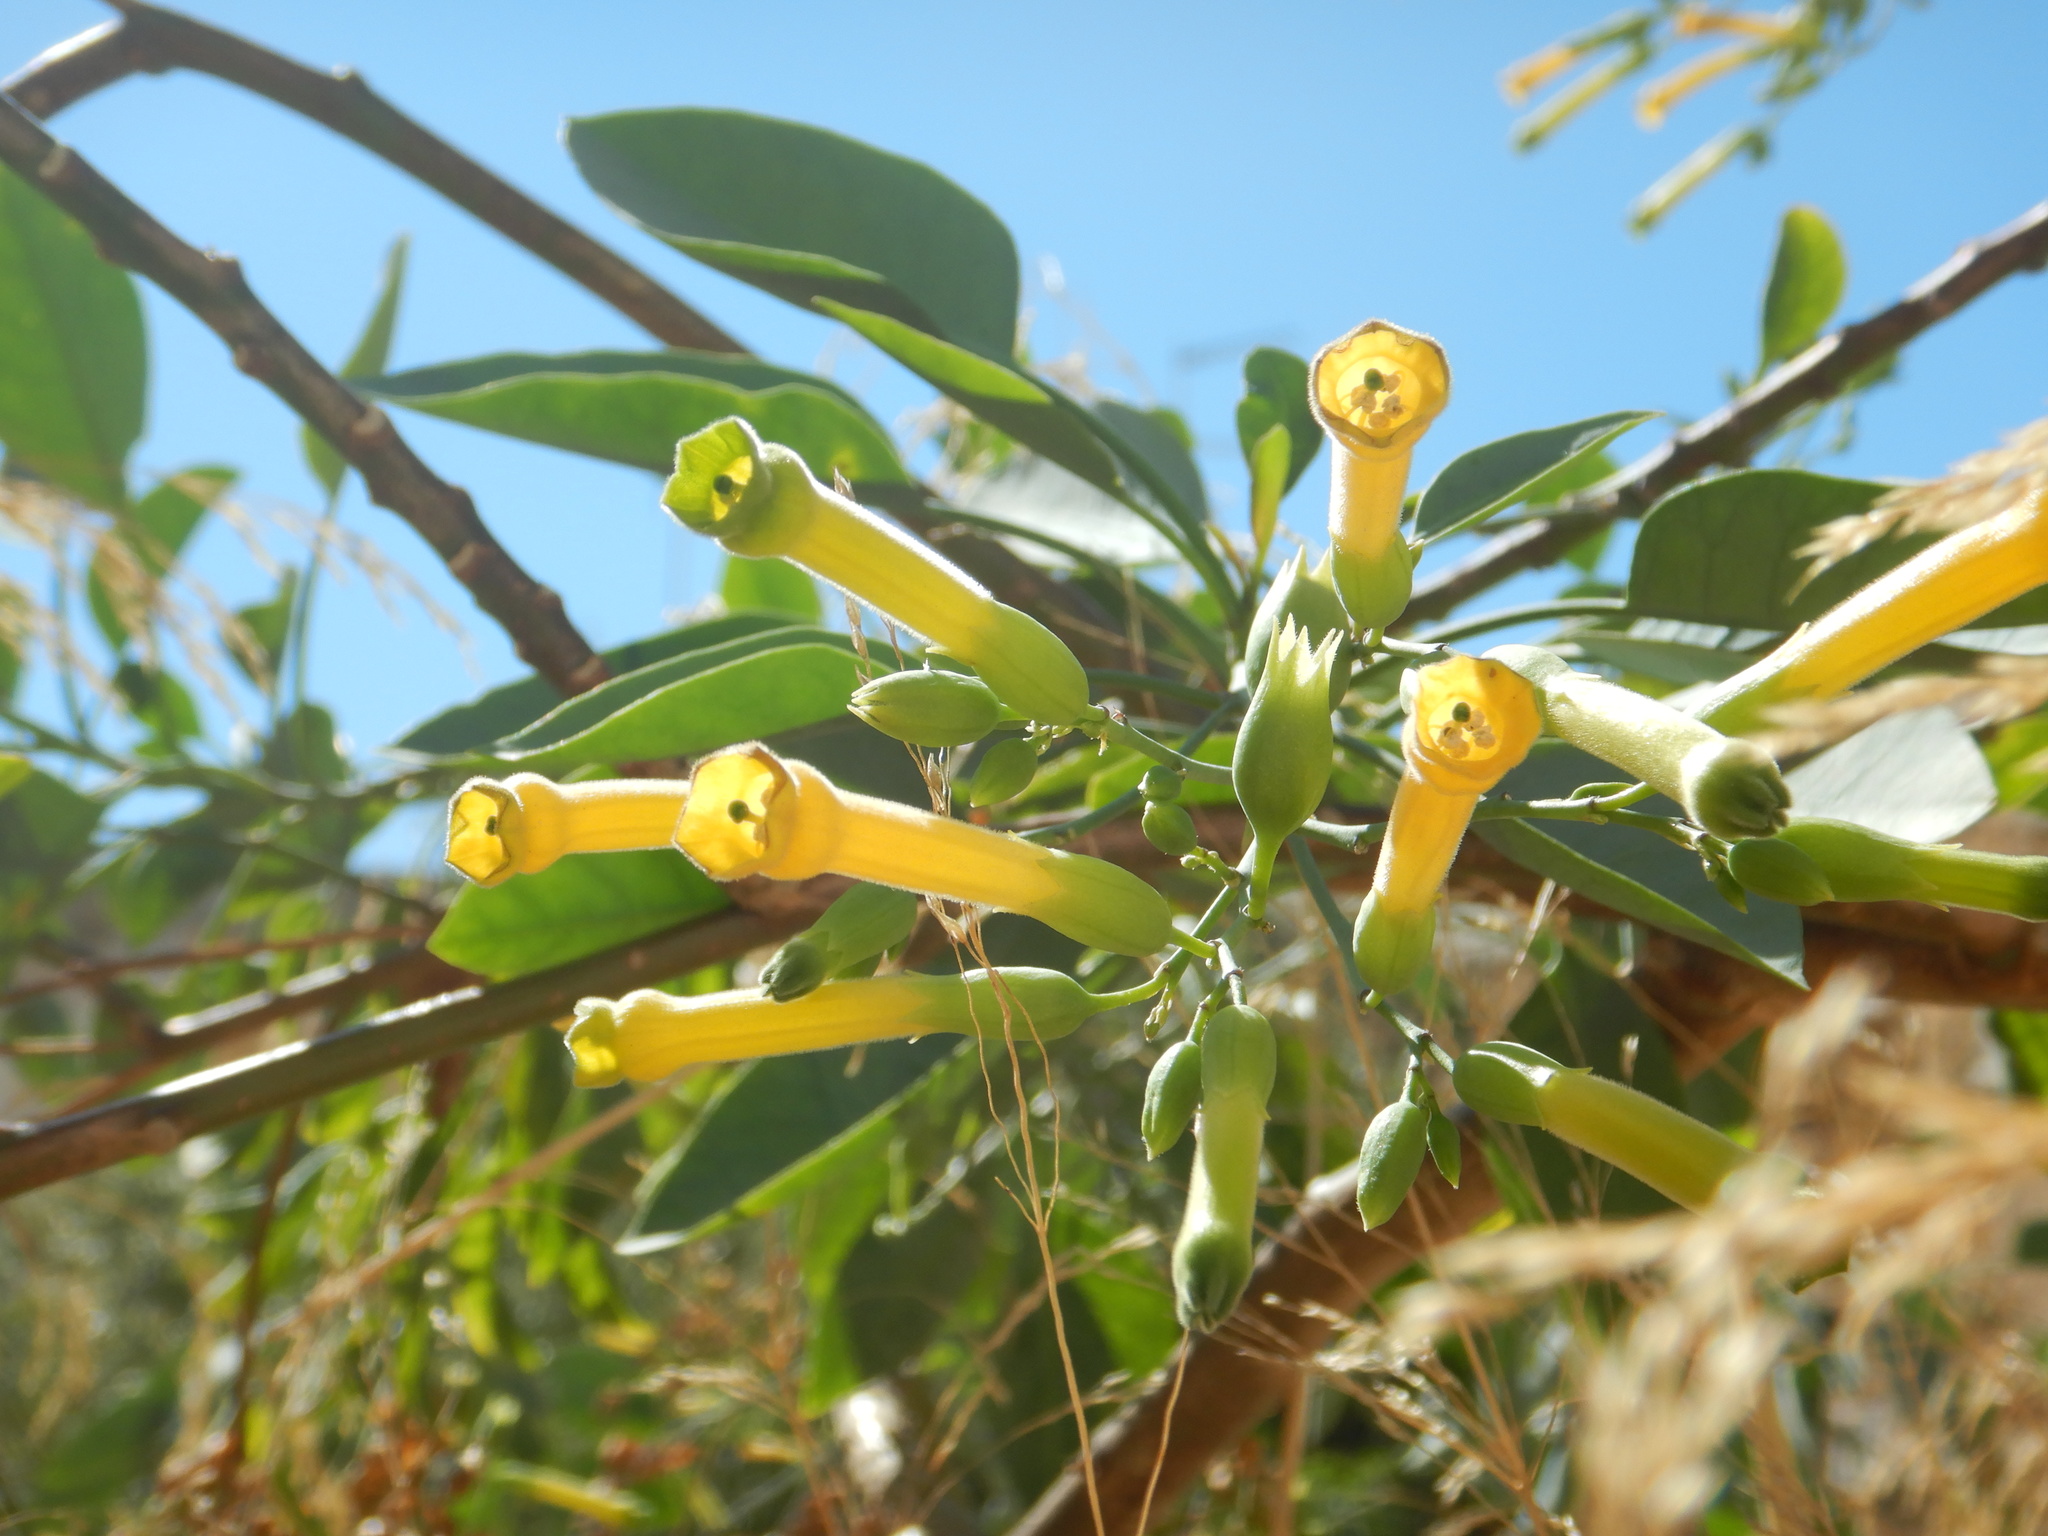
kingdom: Plantae
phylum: Tracheophyta
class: Magnoliopsida
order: Solanales
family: Solanaceae
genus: Nicotiana
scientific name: Nicotiana glauca
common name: Tree tobacco
